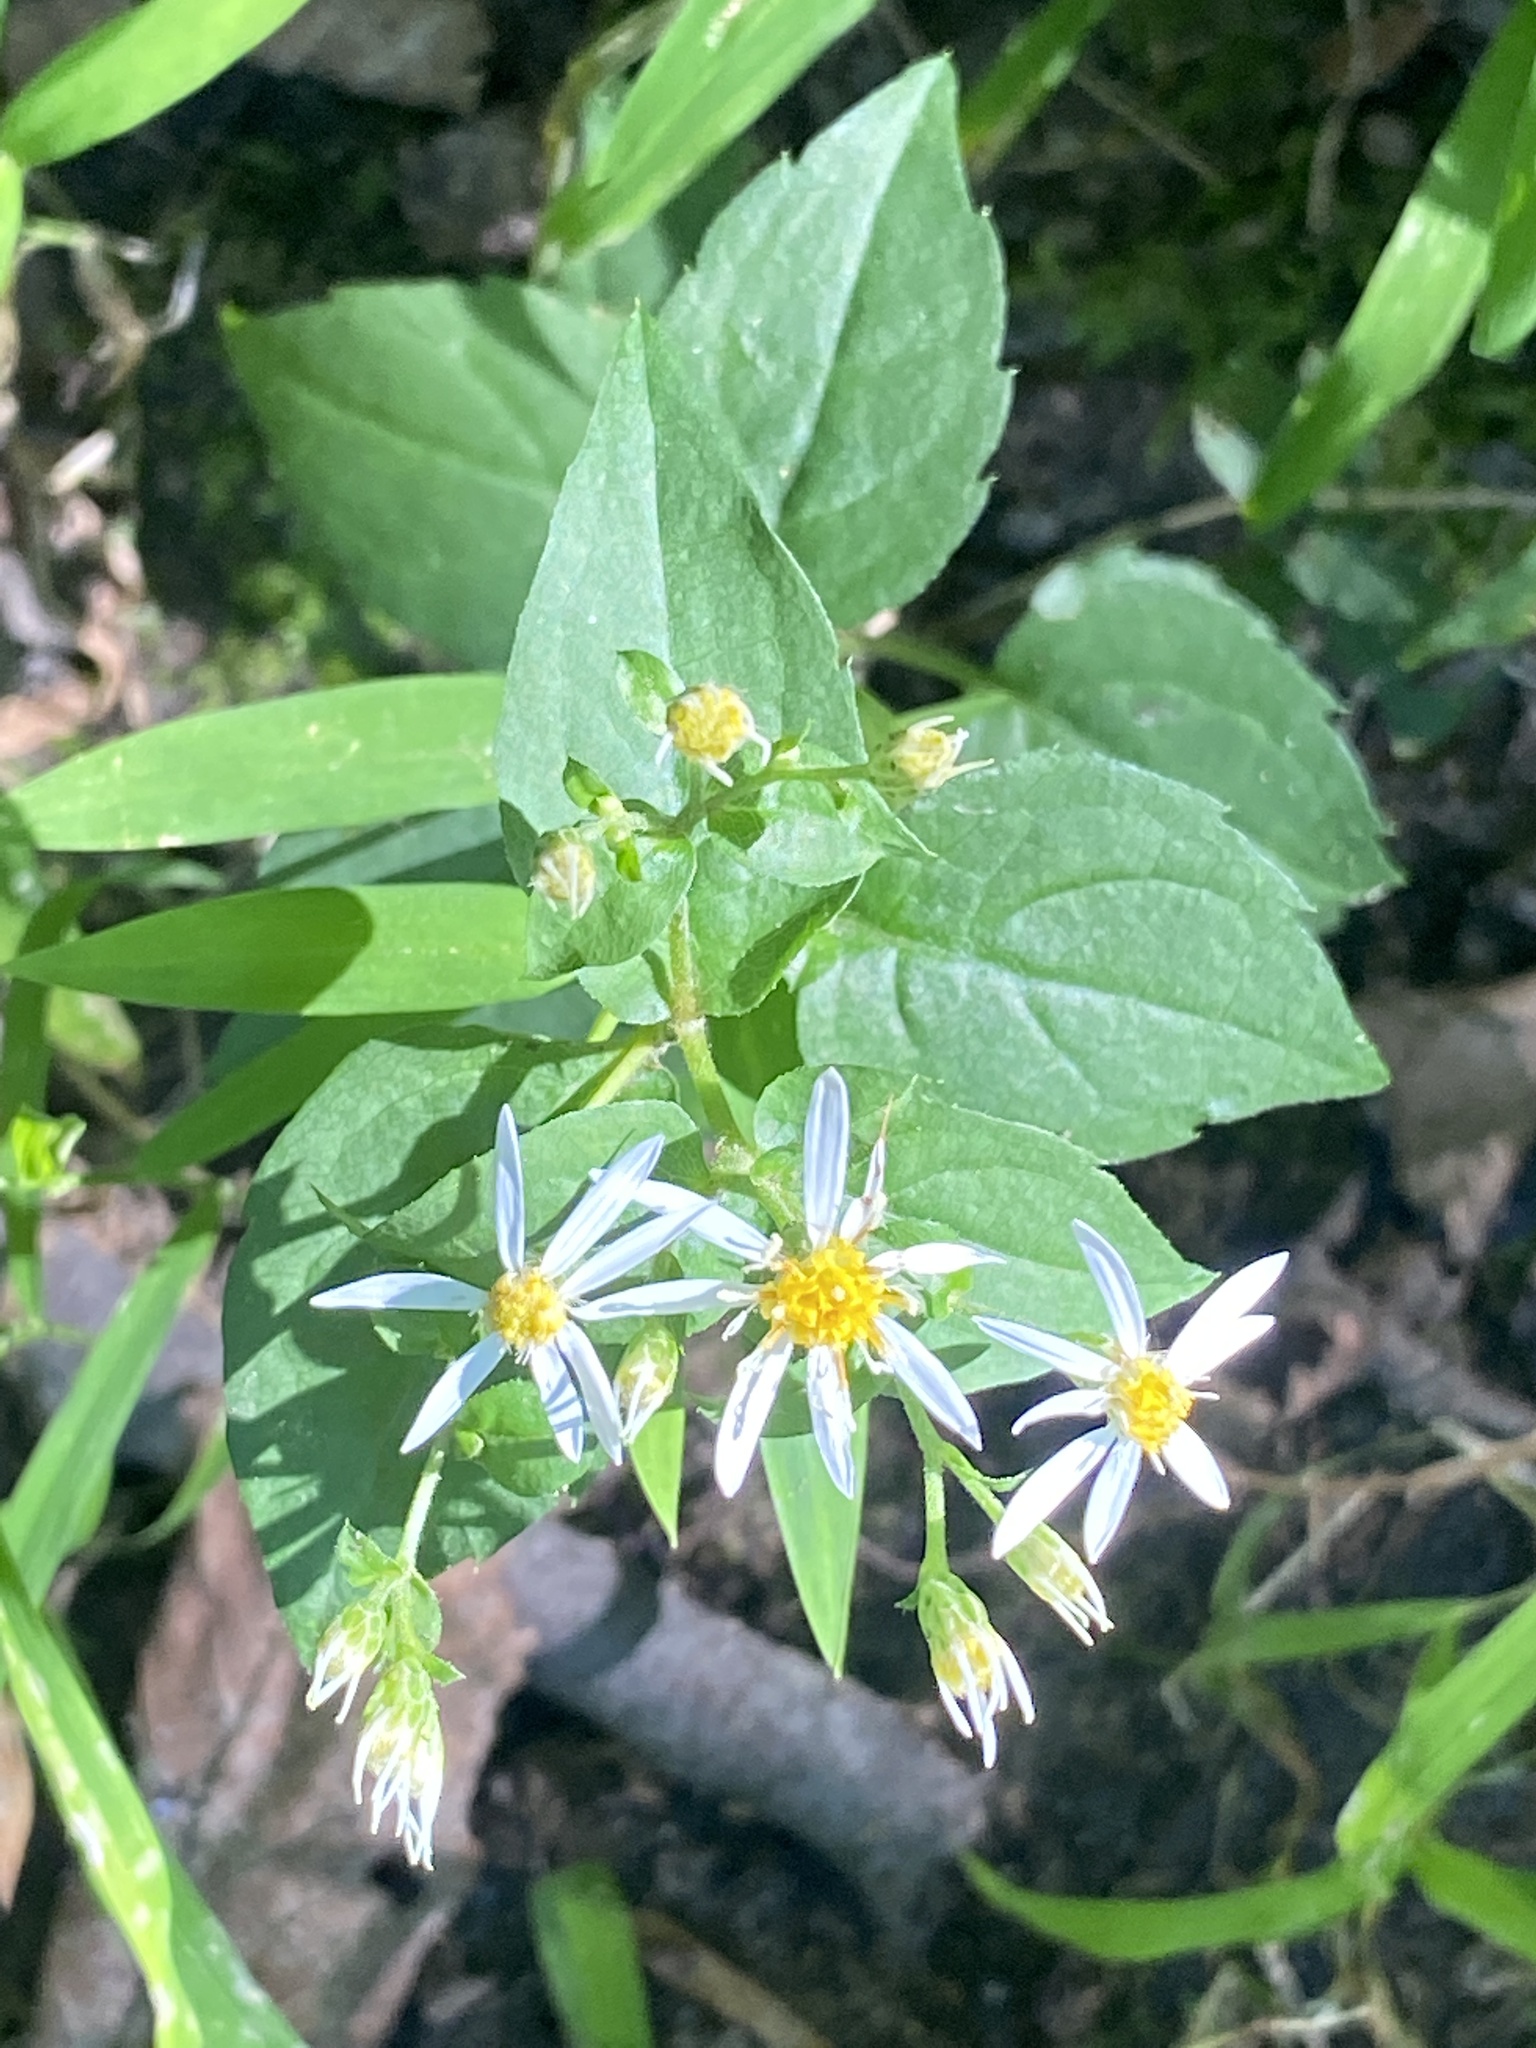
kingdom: Plantae
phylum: Tracheophyta
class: Magnoliopsida
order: Asterales
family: Asteraceae
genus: Eurybia
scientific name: Eurybia divaricata
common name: White wood aster
